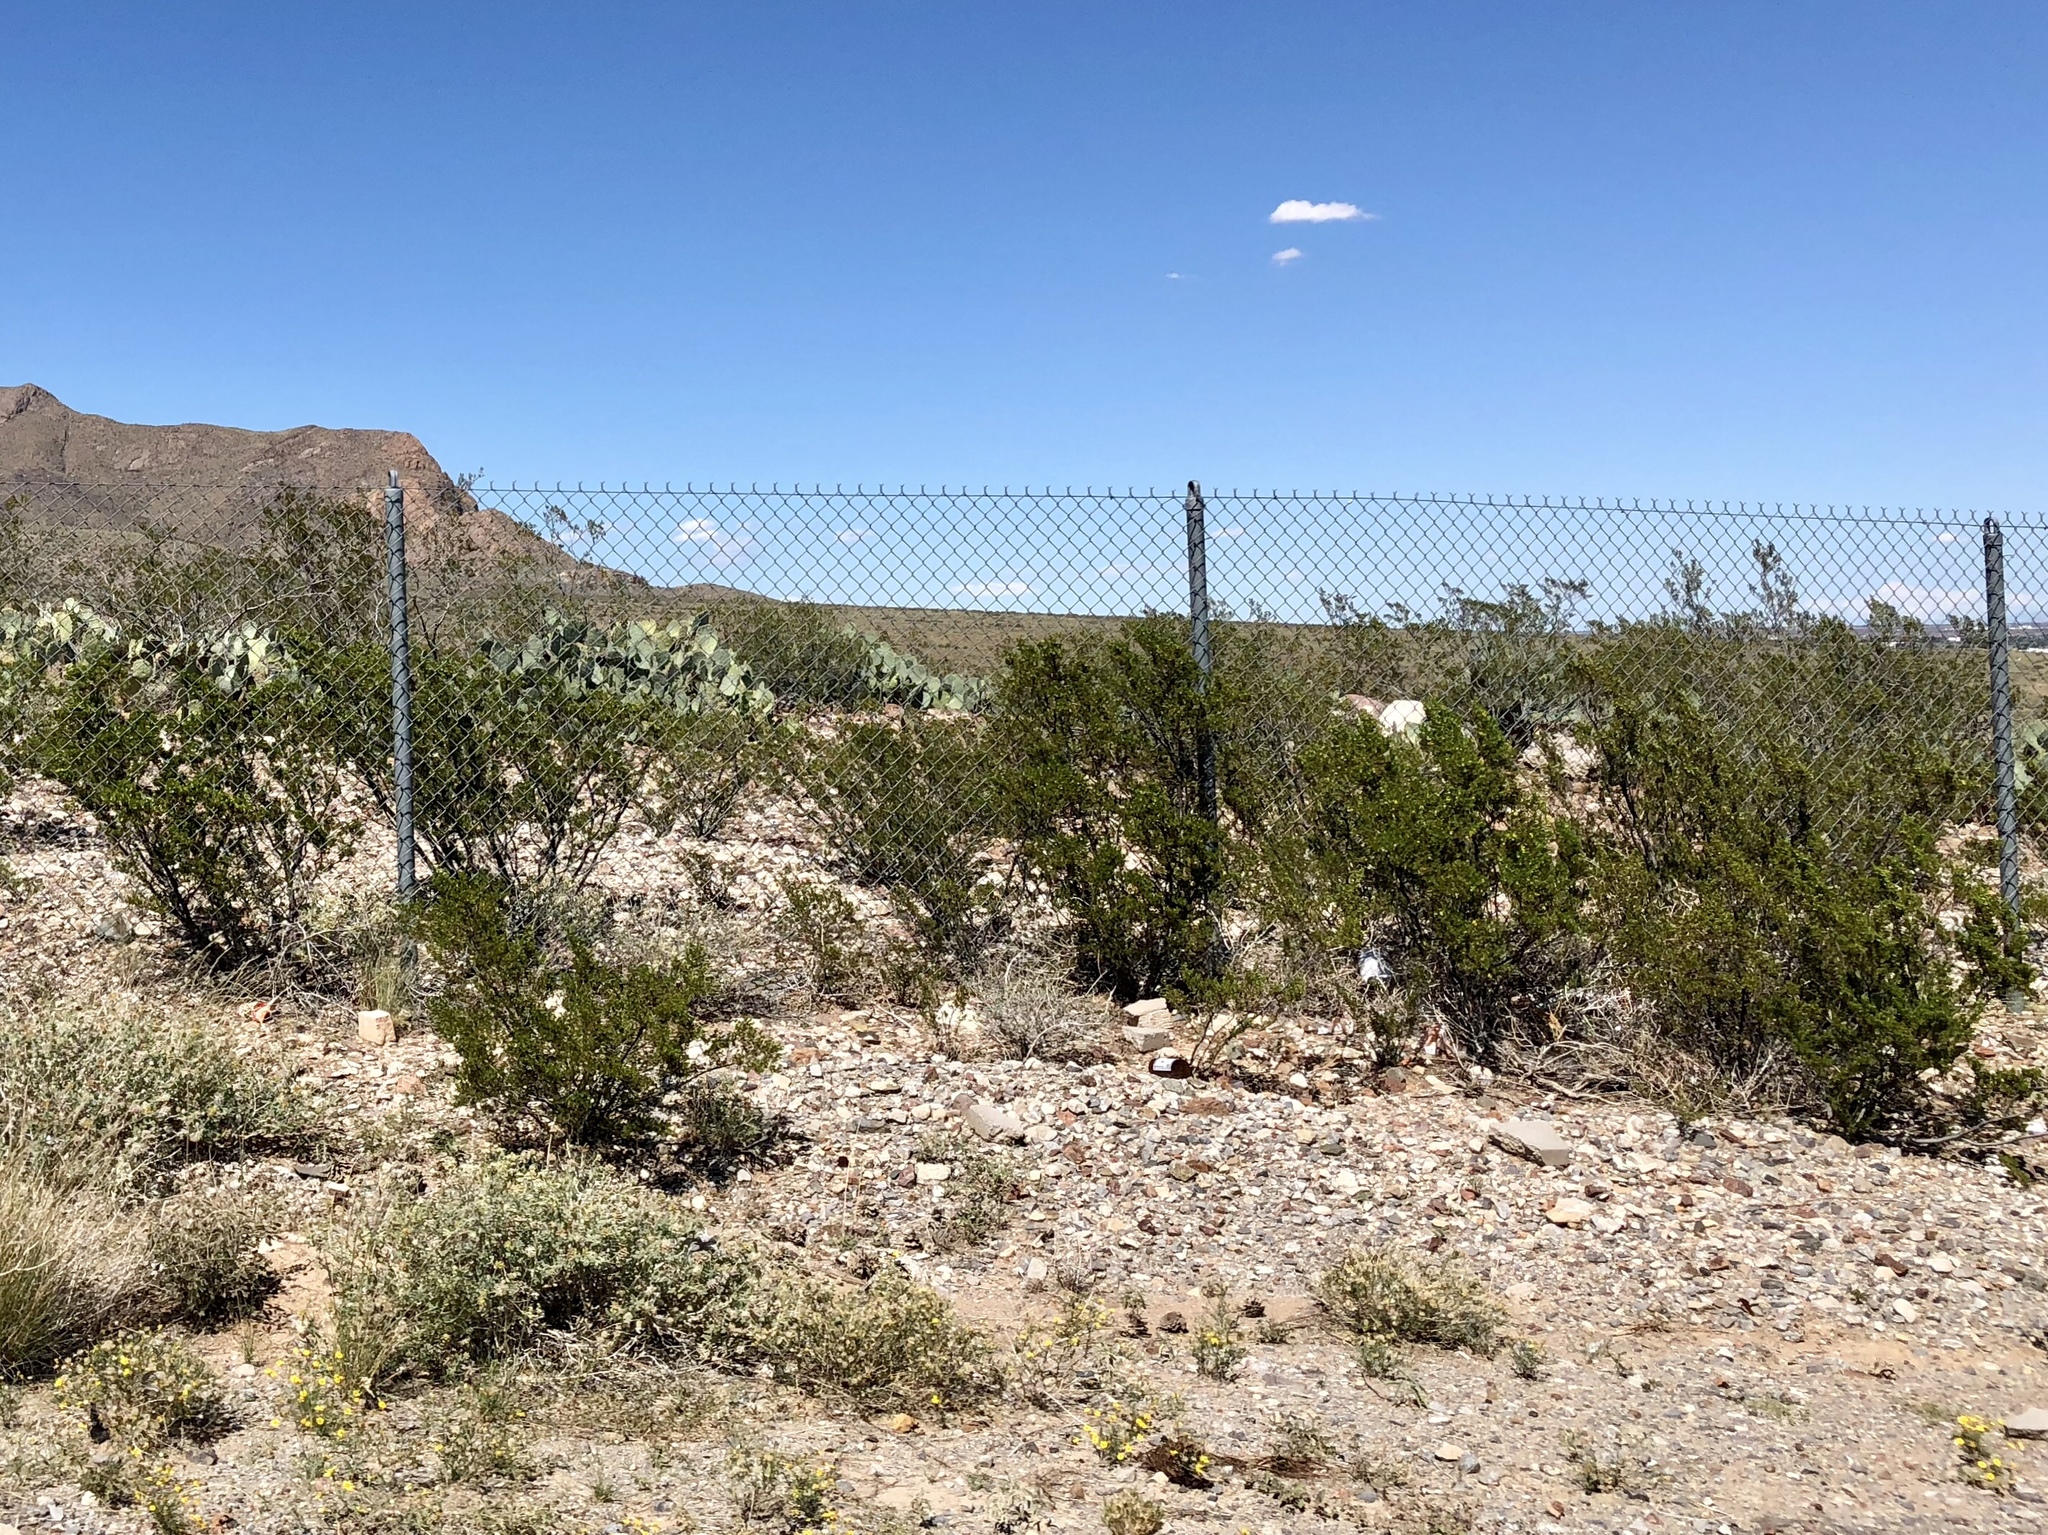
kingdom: Plantae
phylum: Tracheophyta
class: Magnoliopsida
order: Zygophyllales
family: Zygophyllaceae
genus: Larrea
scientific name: Larrea tridentata
